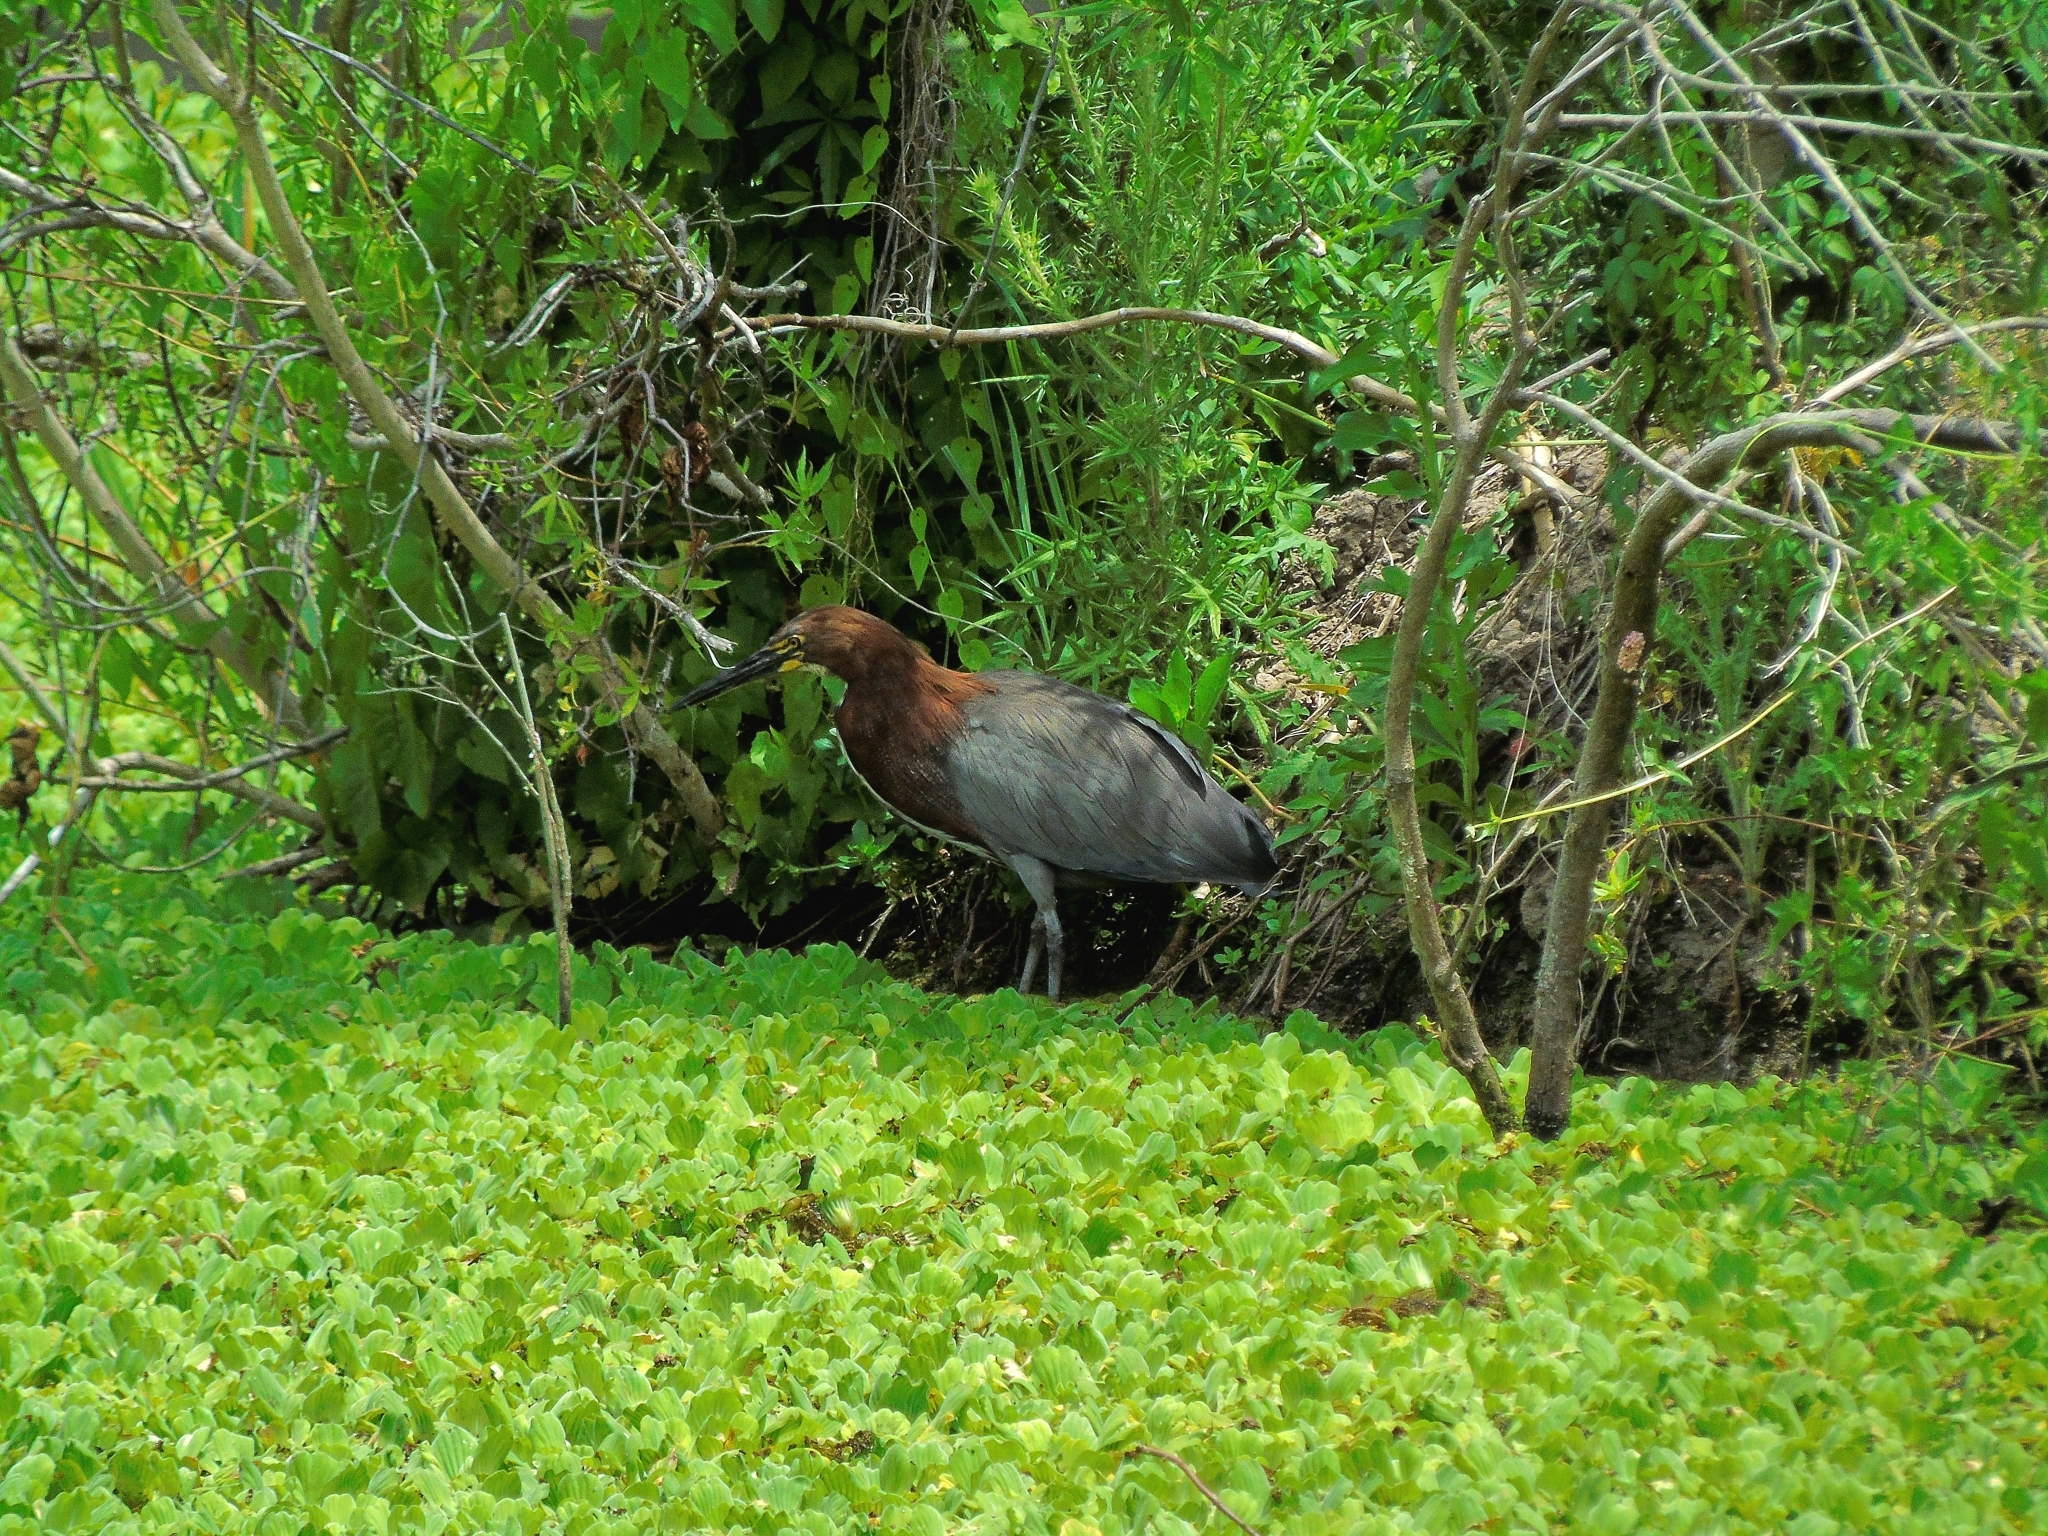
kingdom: Animalia
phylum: Chordata
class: Aves
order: Pelecaniformes
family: Ardeidae
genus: Tigrisoma
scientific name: Tigrisoma lineatum
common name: Rufescent tiger-heron
